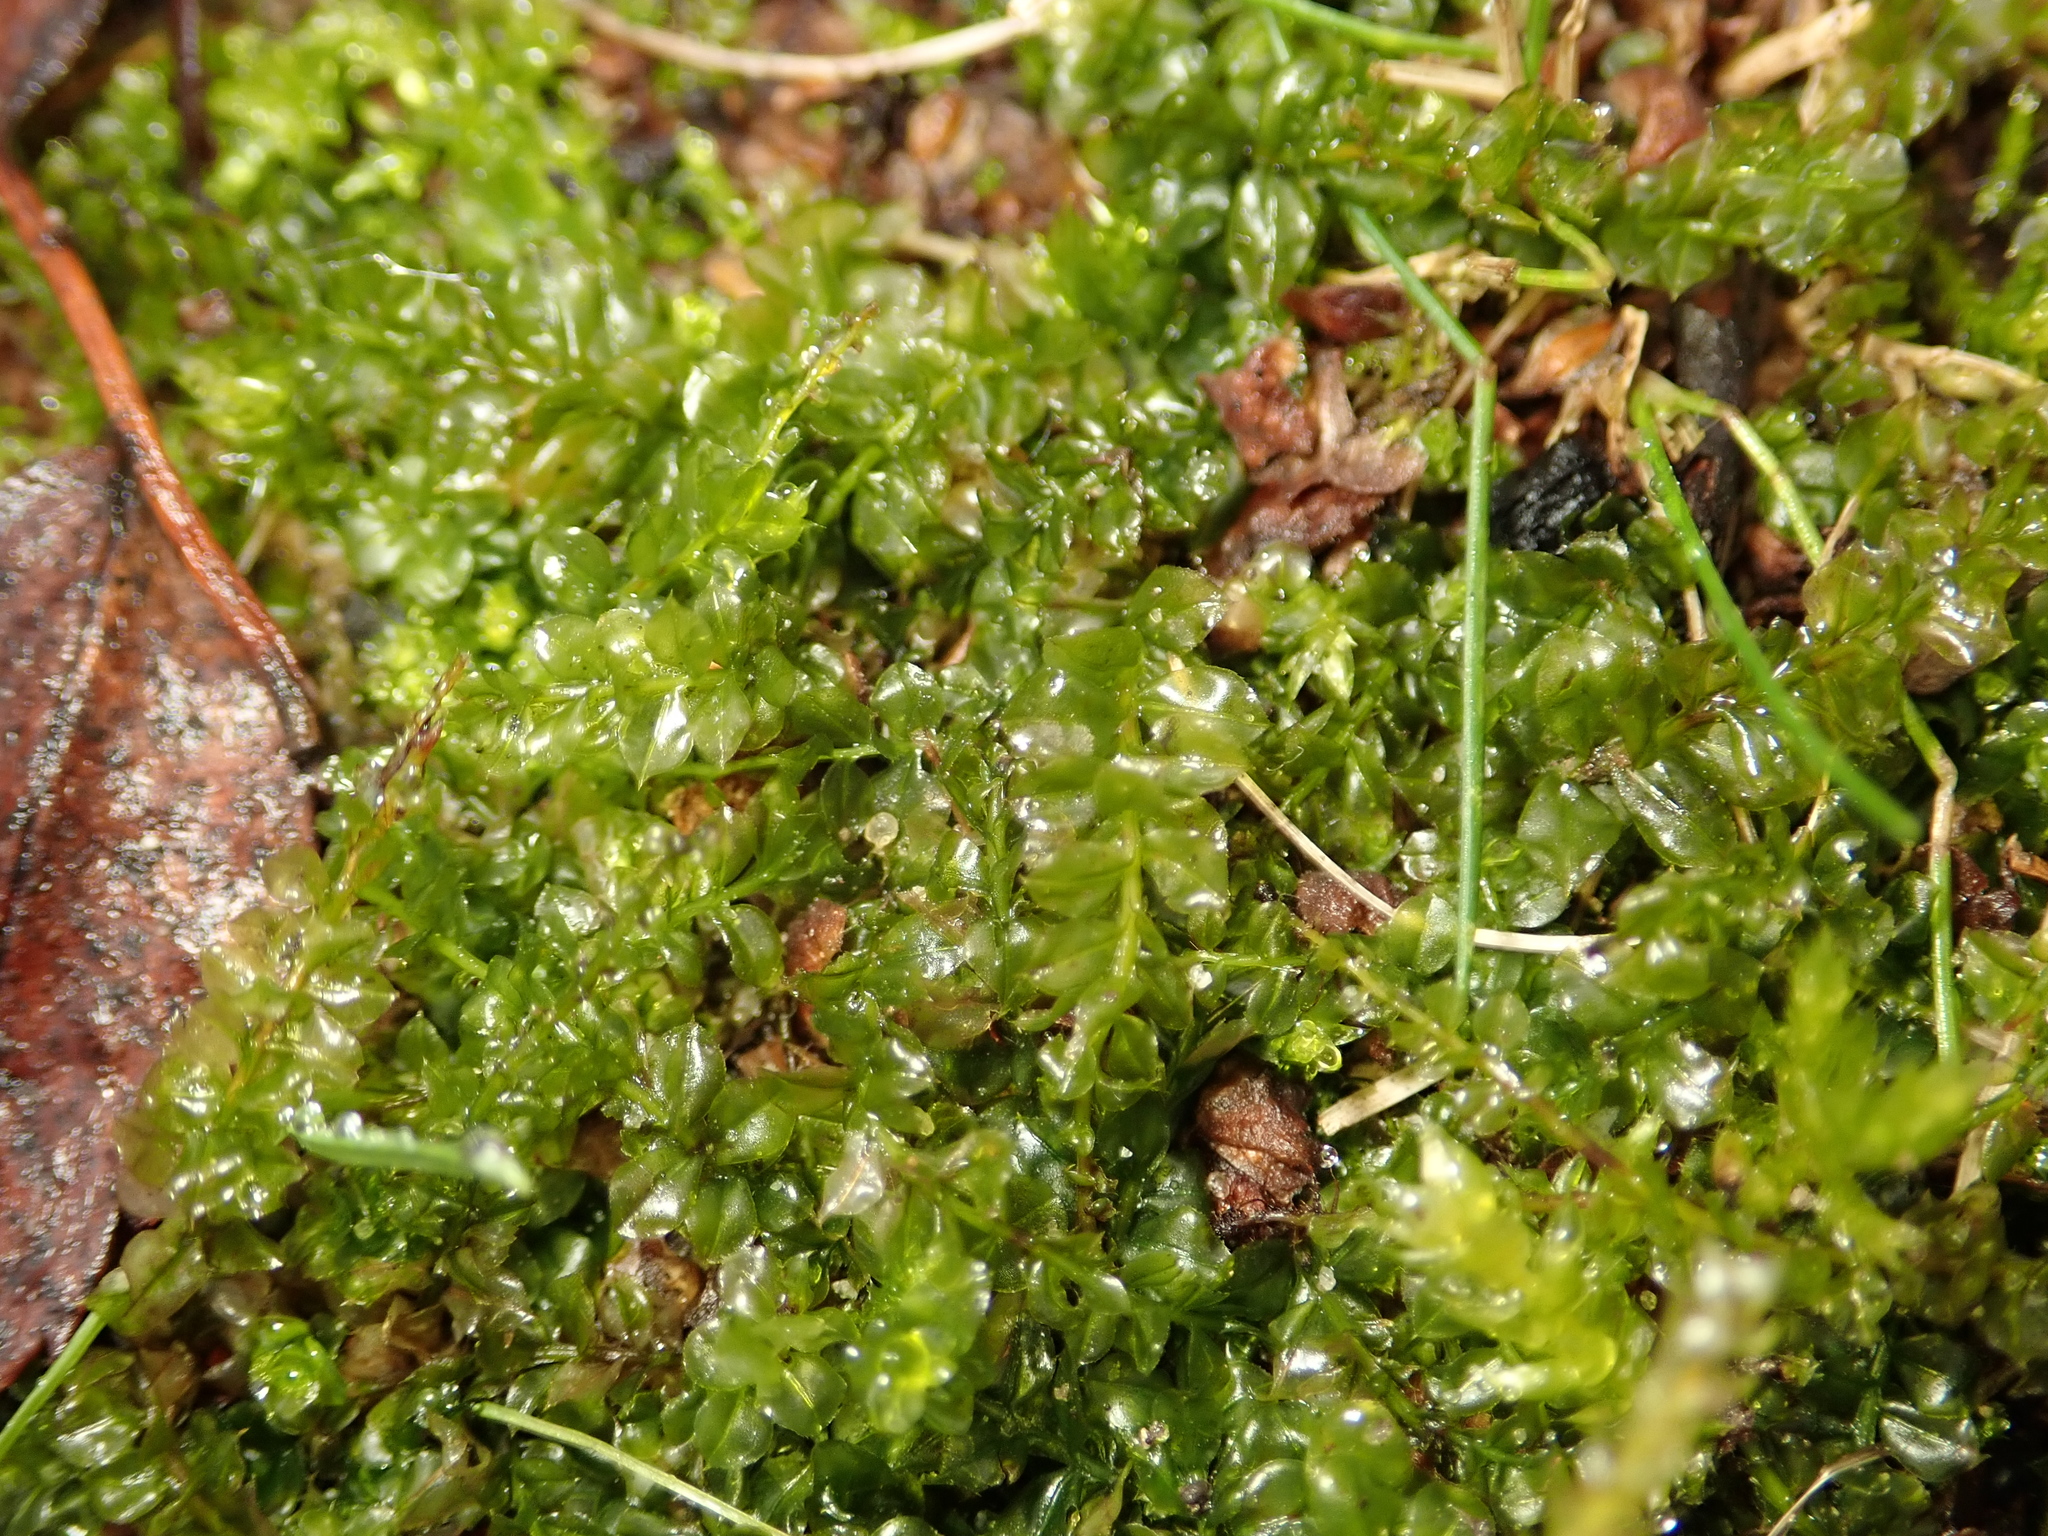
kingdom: Plantae
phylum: Bryophyta
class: Bryopsida
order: Bryales
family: Mniaceae
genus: Plagiomnium
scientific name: Plagiomnium cuspidatum
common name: Woodsy leafy moss
